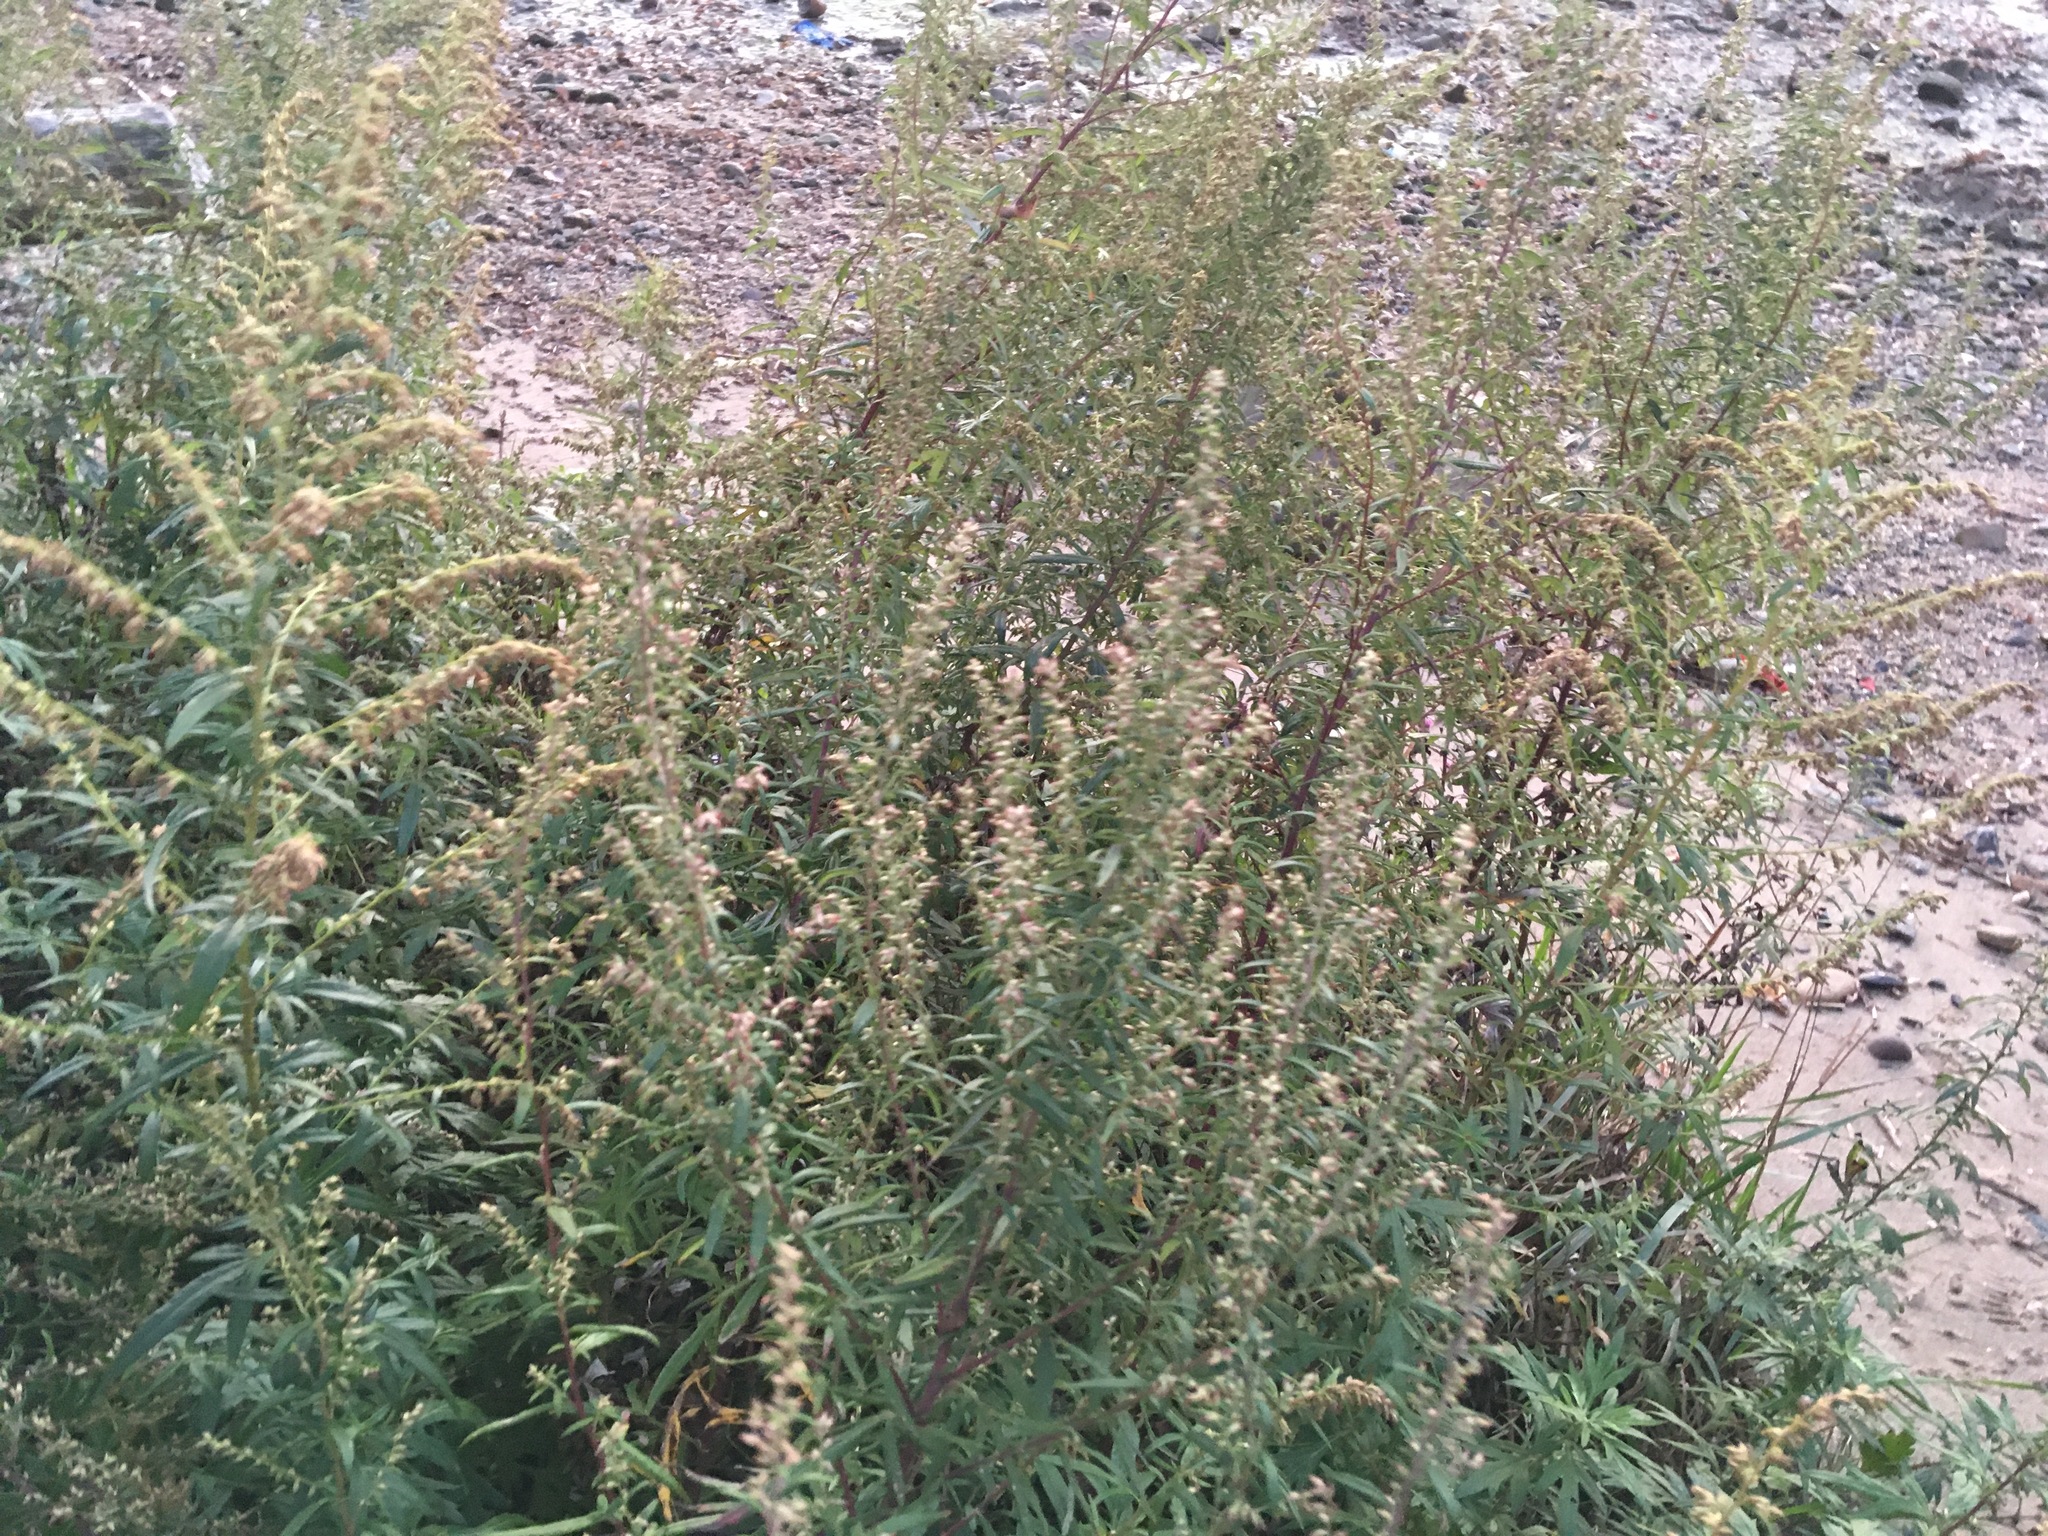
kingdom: Plantae
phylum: Tracheophyta
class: Magnoliopsida
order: Asterales
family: Asteraceae
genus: Artemisia
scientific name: Artemisia vulgaris
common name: Mugwort
